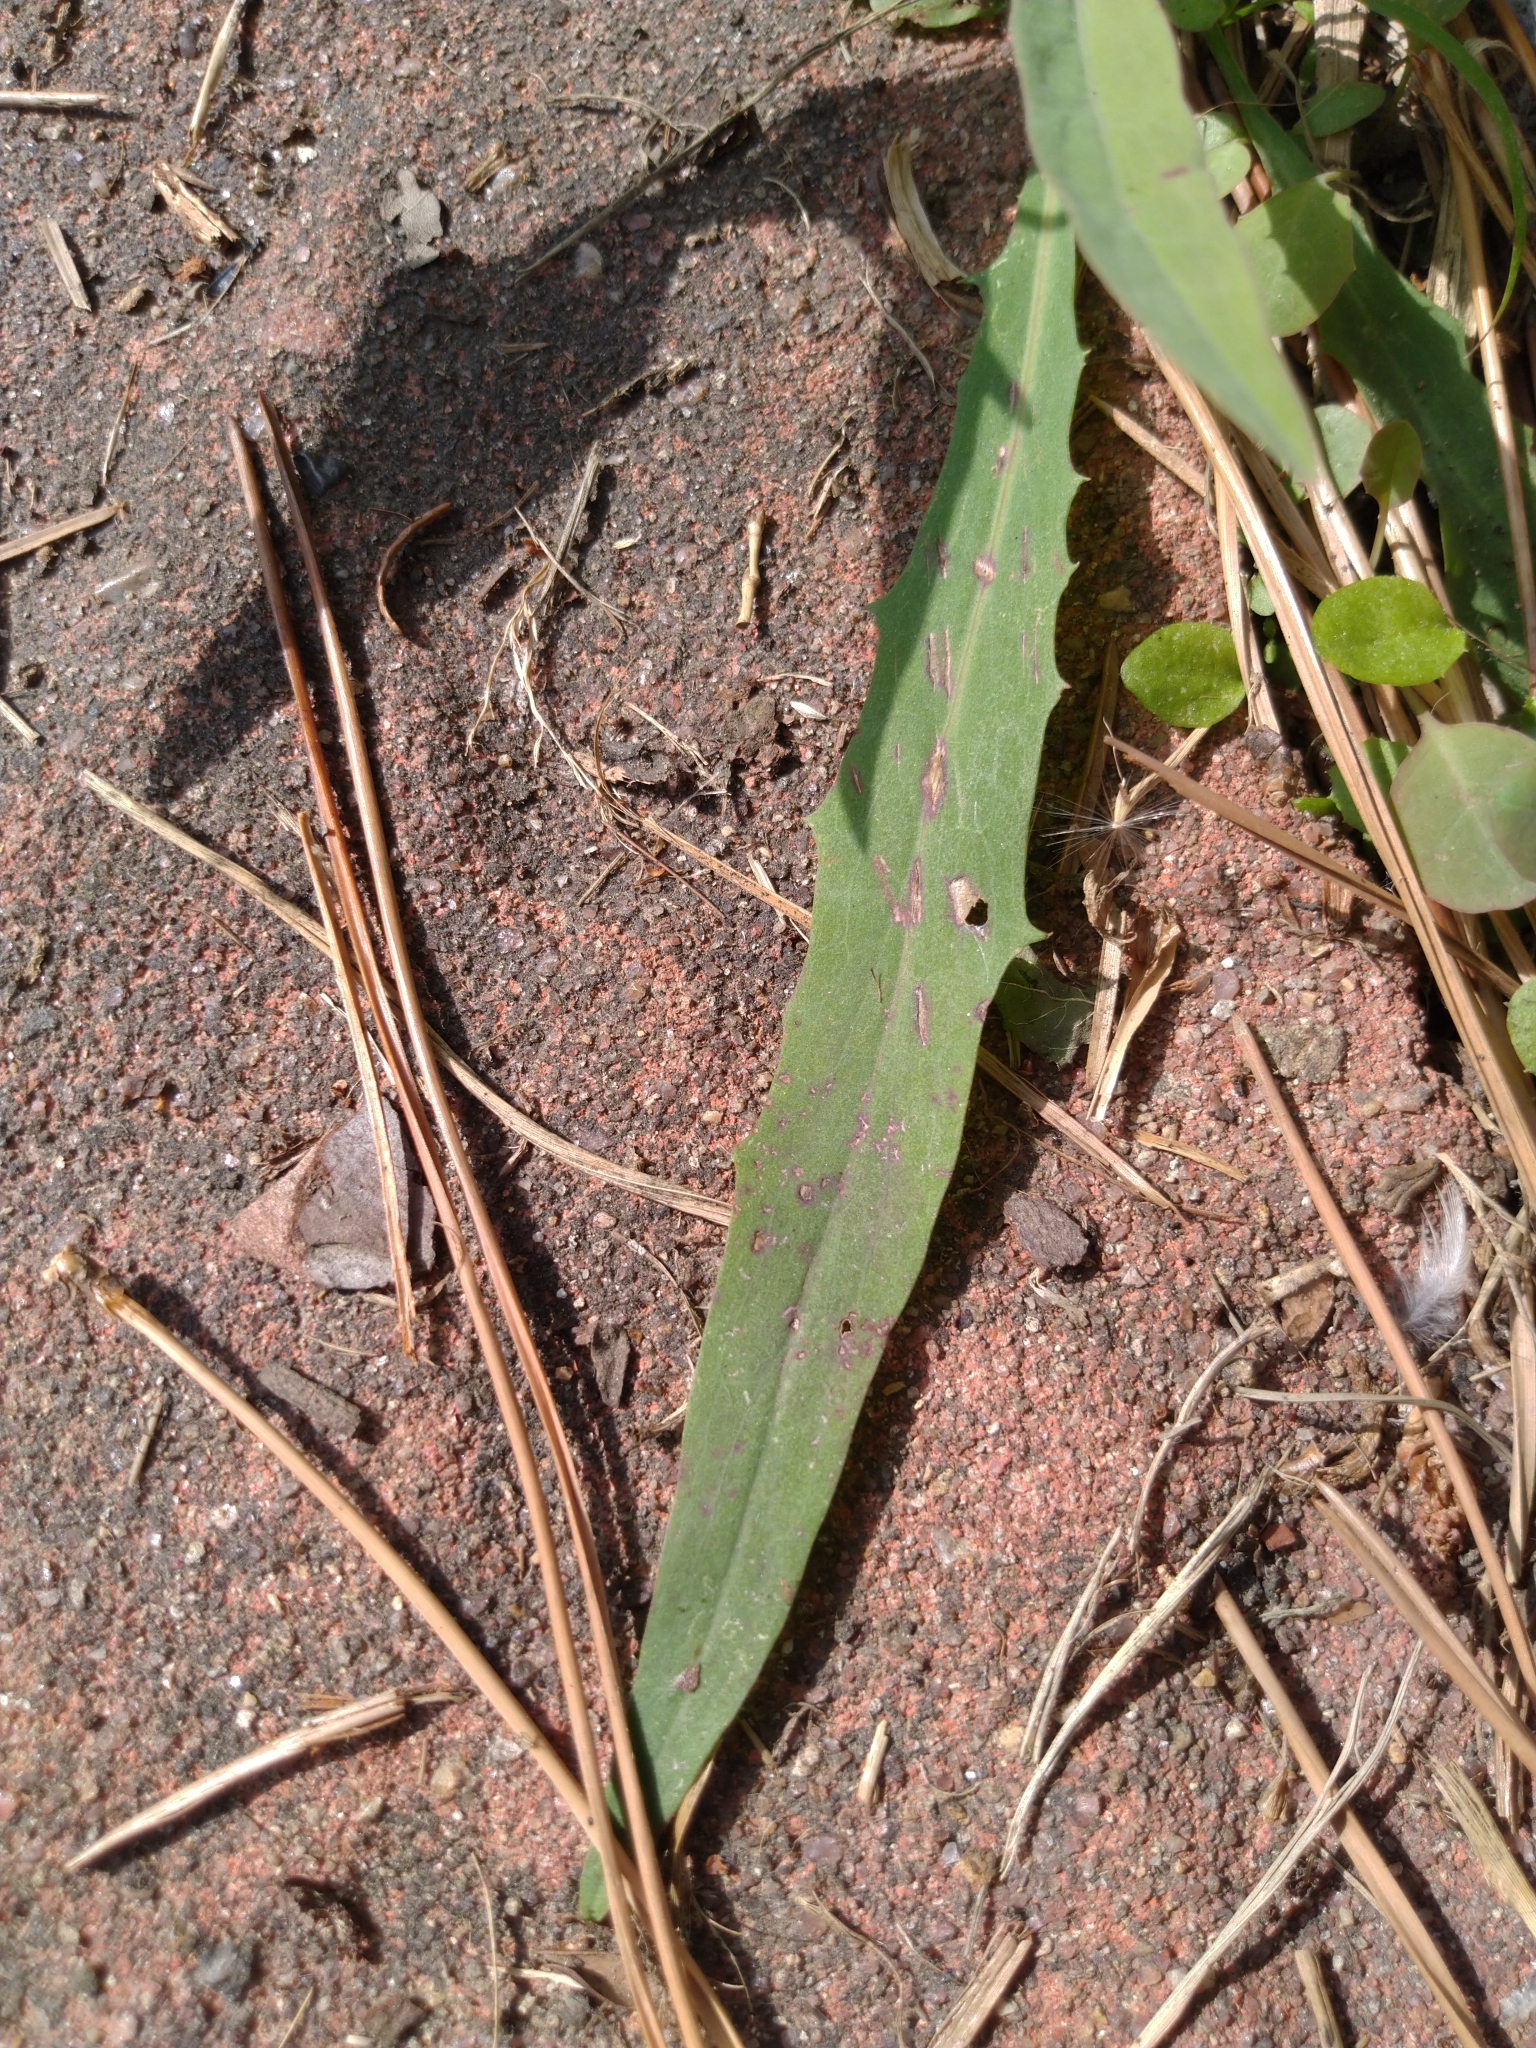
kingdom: Plantae
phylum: Tracheophyta
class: Magnoliopsida
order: Asterales
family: Asteraceae
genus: Ixeris
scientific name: Ixeris chinensis
